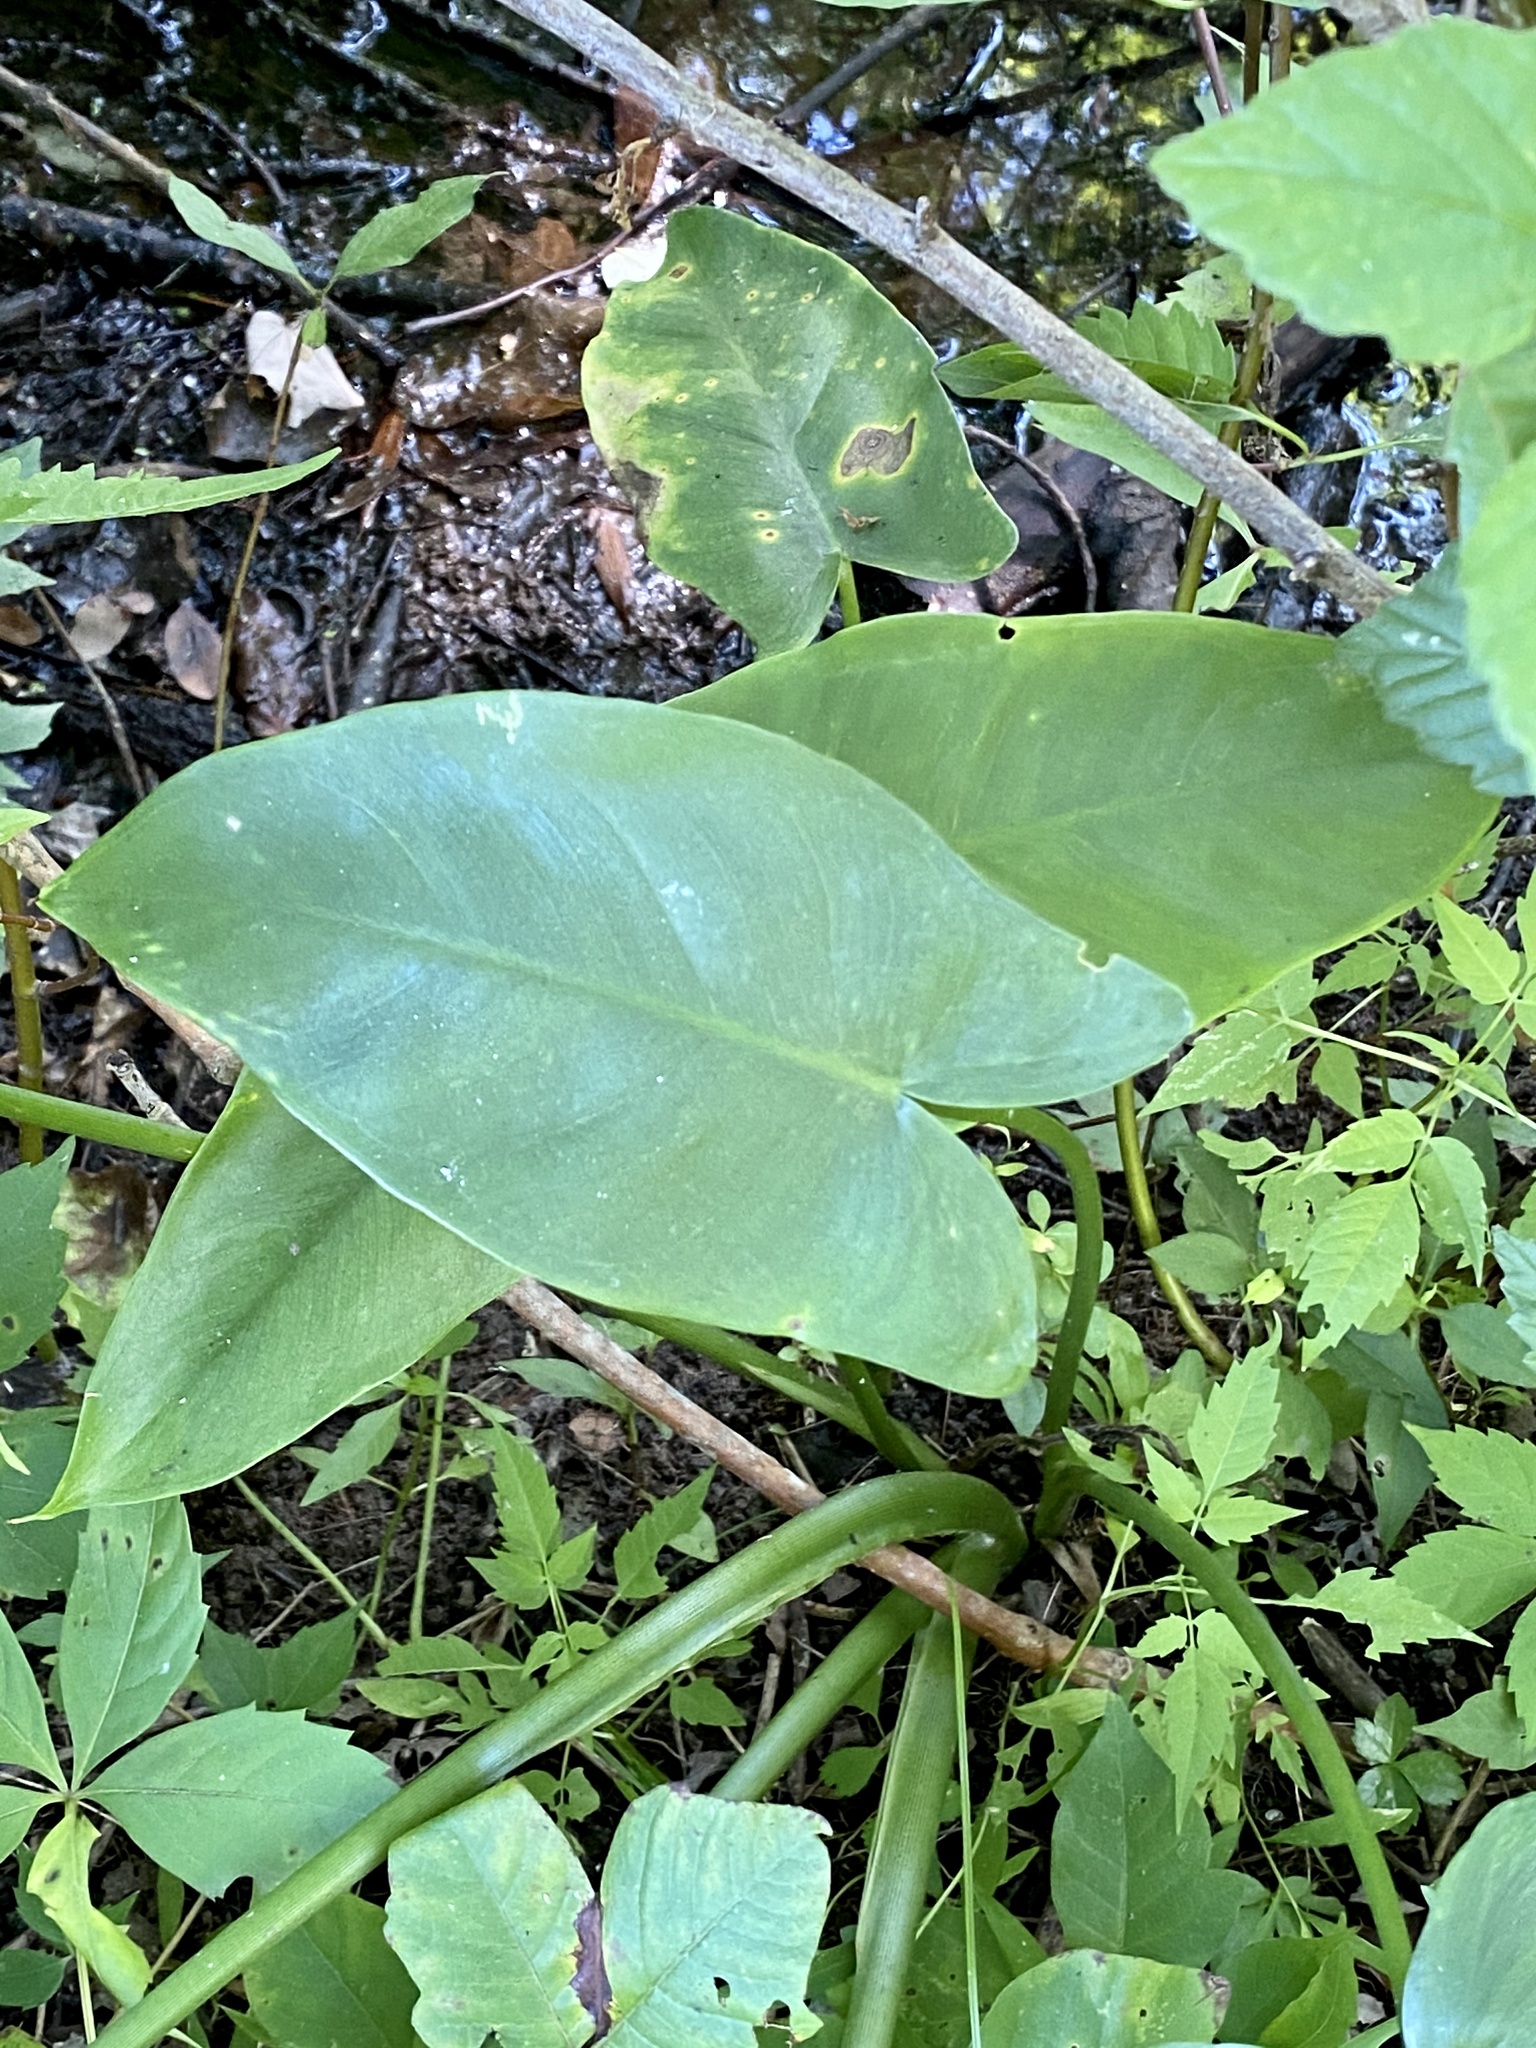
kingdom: Plantae
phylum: Tracheophyta
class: Liliopsida
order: Alismatales
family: Araceae
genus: Peltandra
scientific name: Peltandra virginica
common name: Arrow arum
